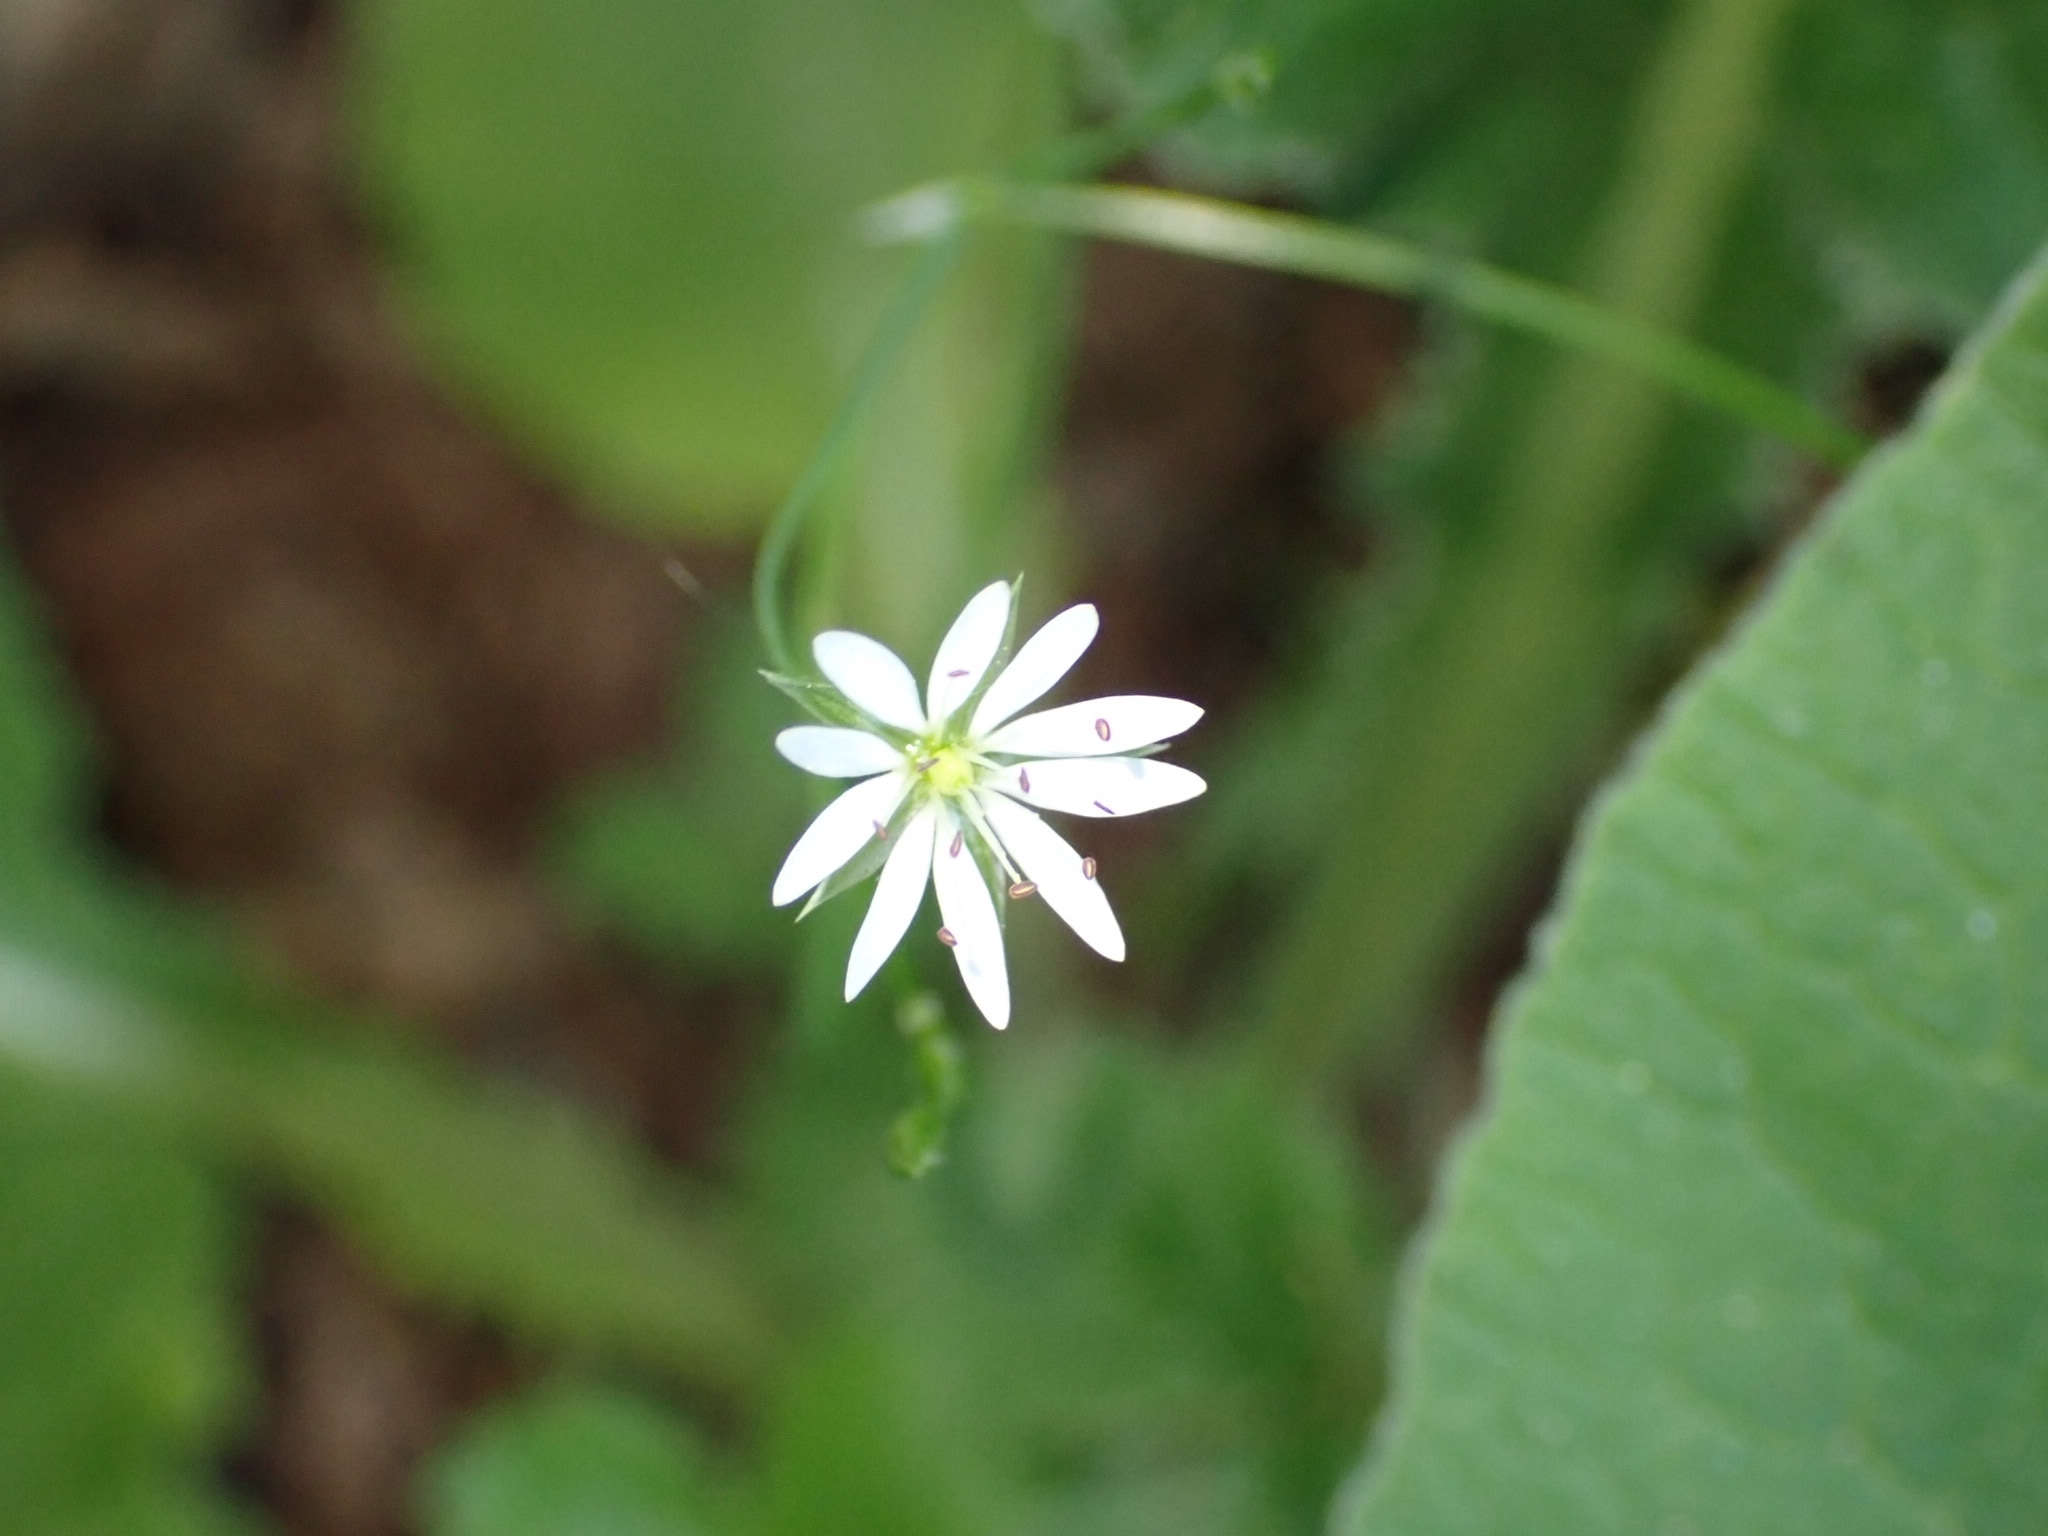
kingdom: Plantae
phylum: Tracheophyta
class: Magnoliopsida
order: Caryophyllales
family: Caryophyllaceae
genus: Stellaria
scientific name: Stellaria graminea
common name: Grass-like starwort
